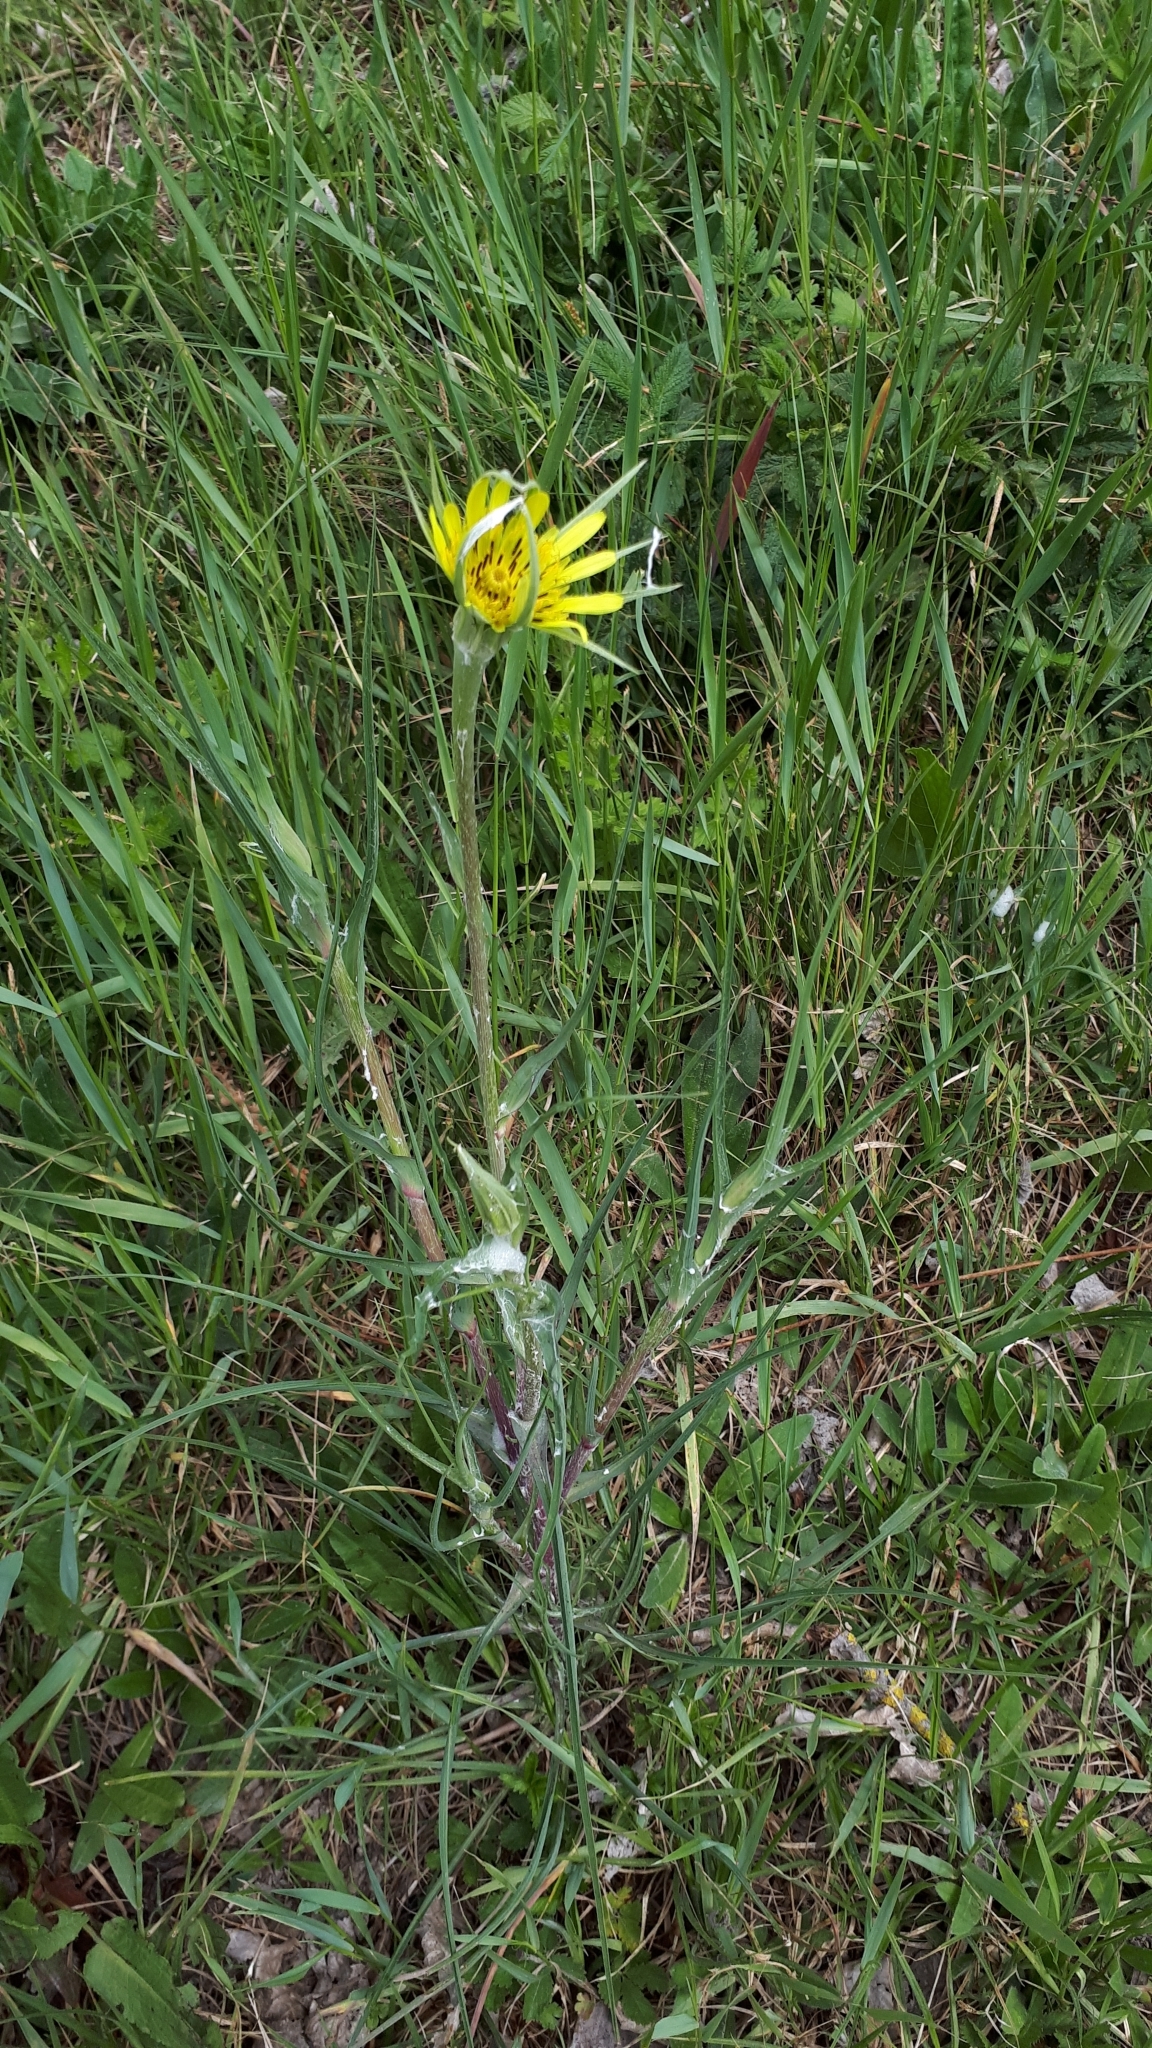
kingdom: Plantae
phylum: Tracheophyta
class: Magnoliopsida
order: Asterales
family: Asteraceae
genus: Tragopogon
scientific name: Tragopogon dubius
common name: Yellow salsify
